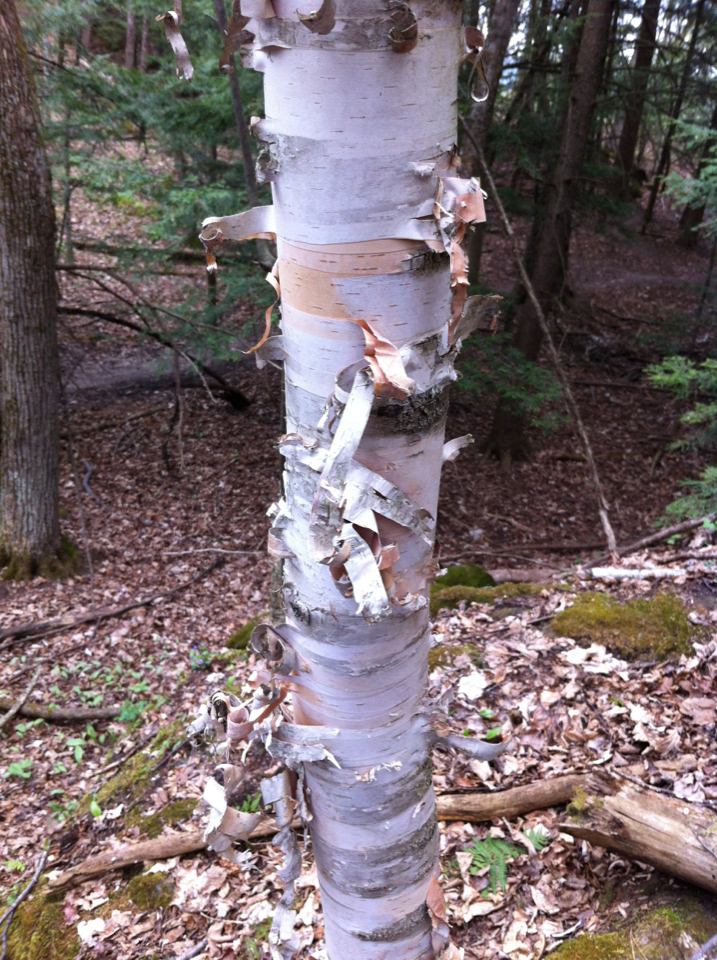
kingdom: Plantae
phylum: Tracheophyta
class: Magnoliopsida
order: Fagales
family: Betulaceae
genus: Betula
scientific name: Betula papyrifera
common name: Paper birch
